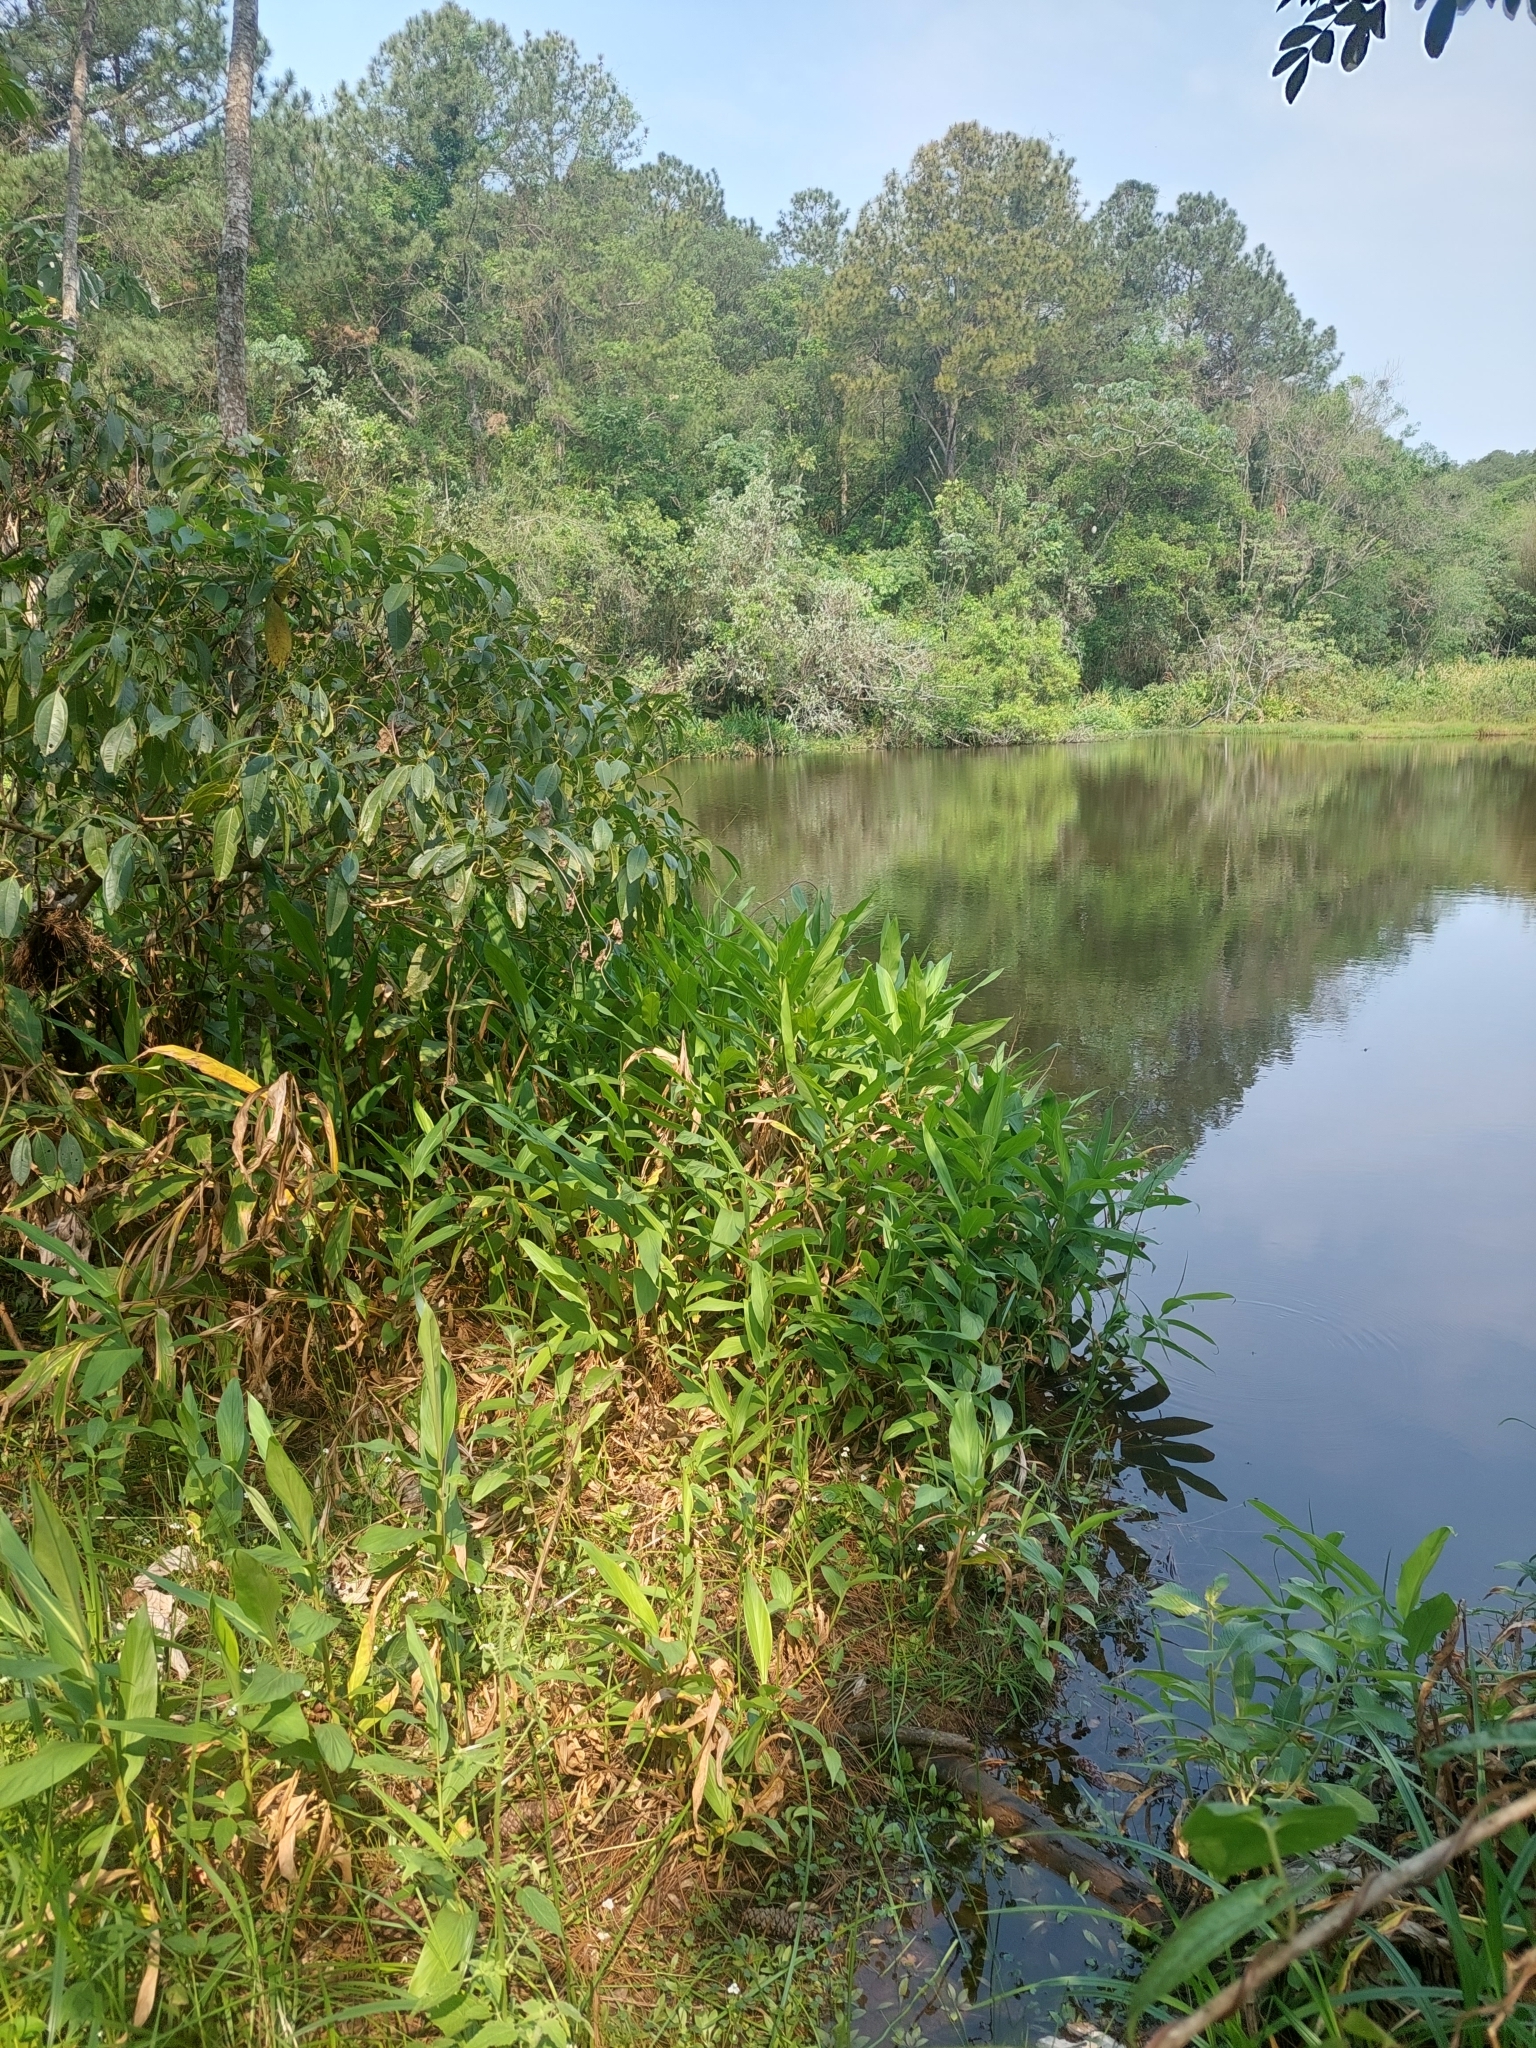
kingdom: Plantae
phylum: Tracheophyta
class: Liliopsida
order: Zingiberales
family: Zingiberaceae
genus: Hedychium
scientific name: Hedychium coronarium
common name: White garland-lily
